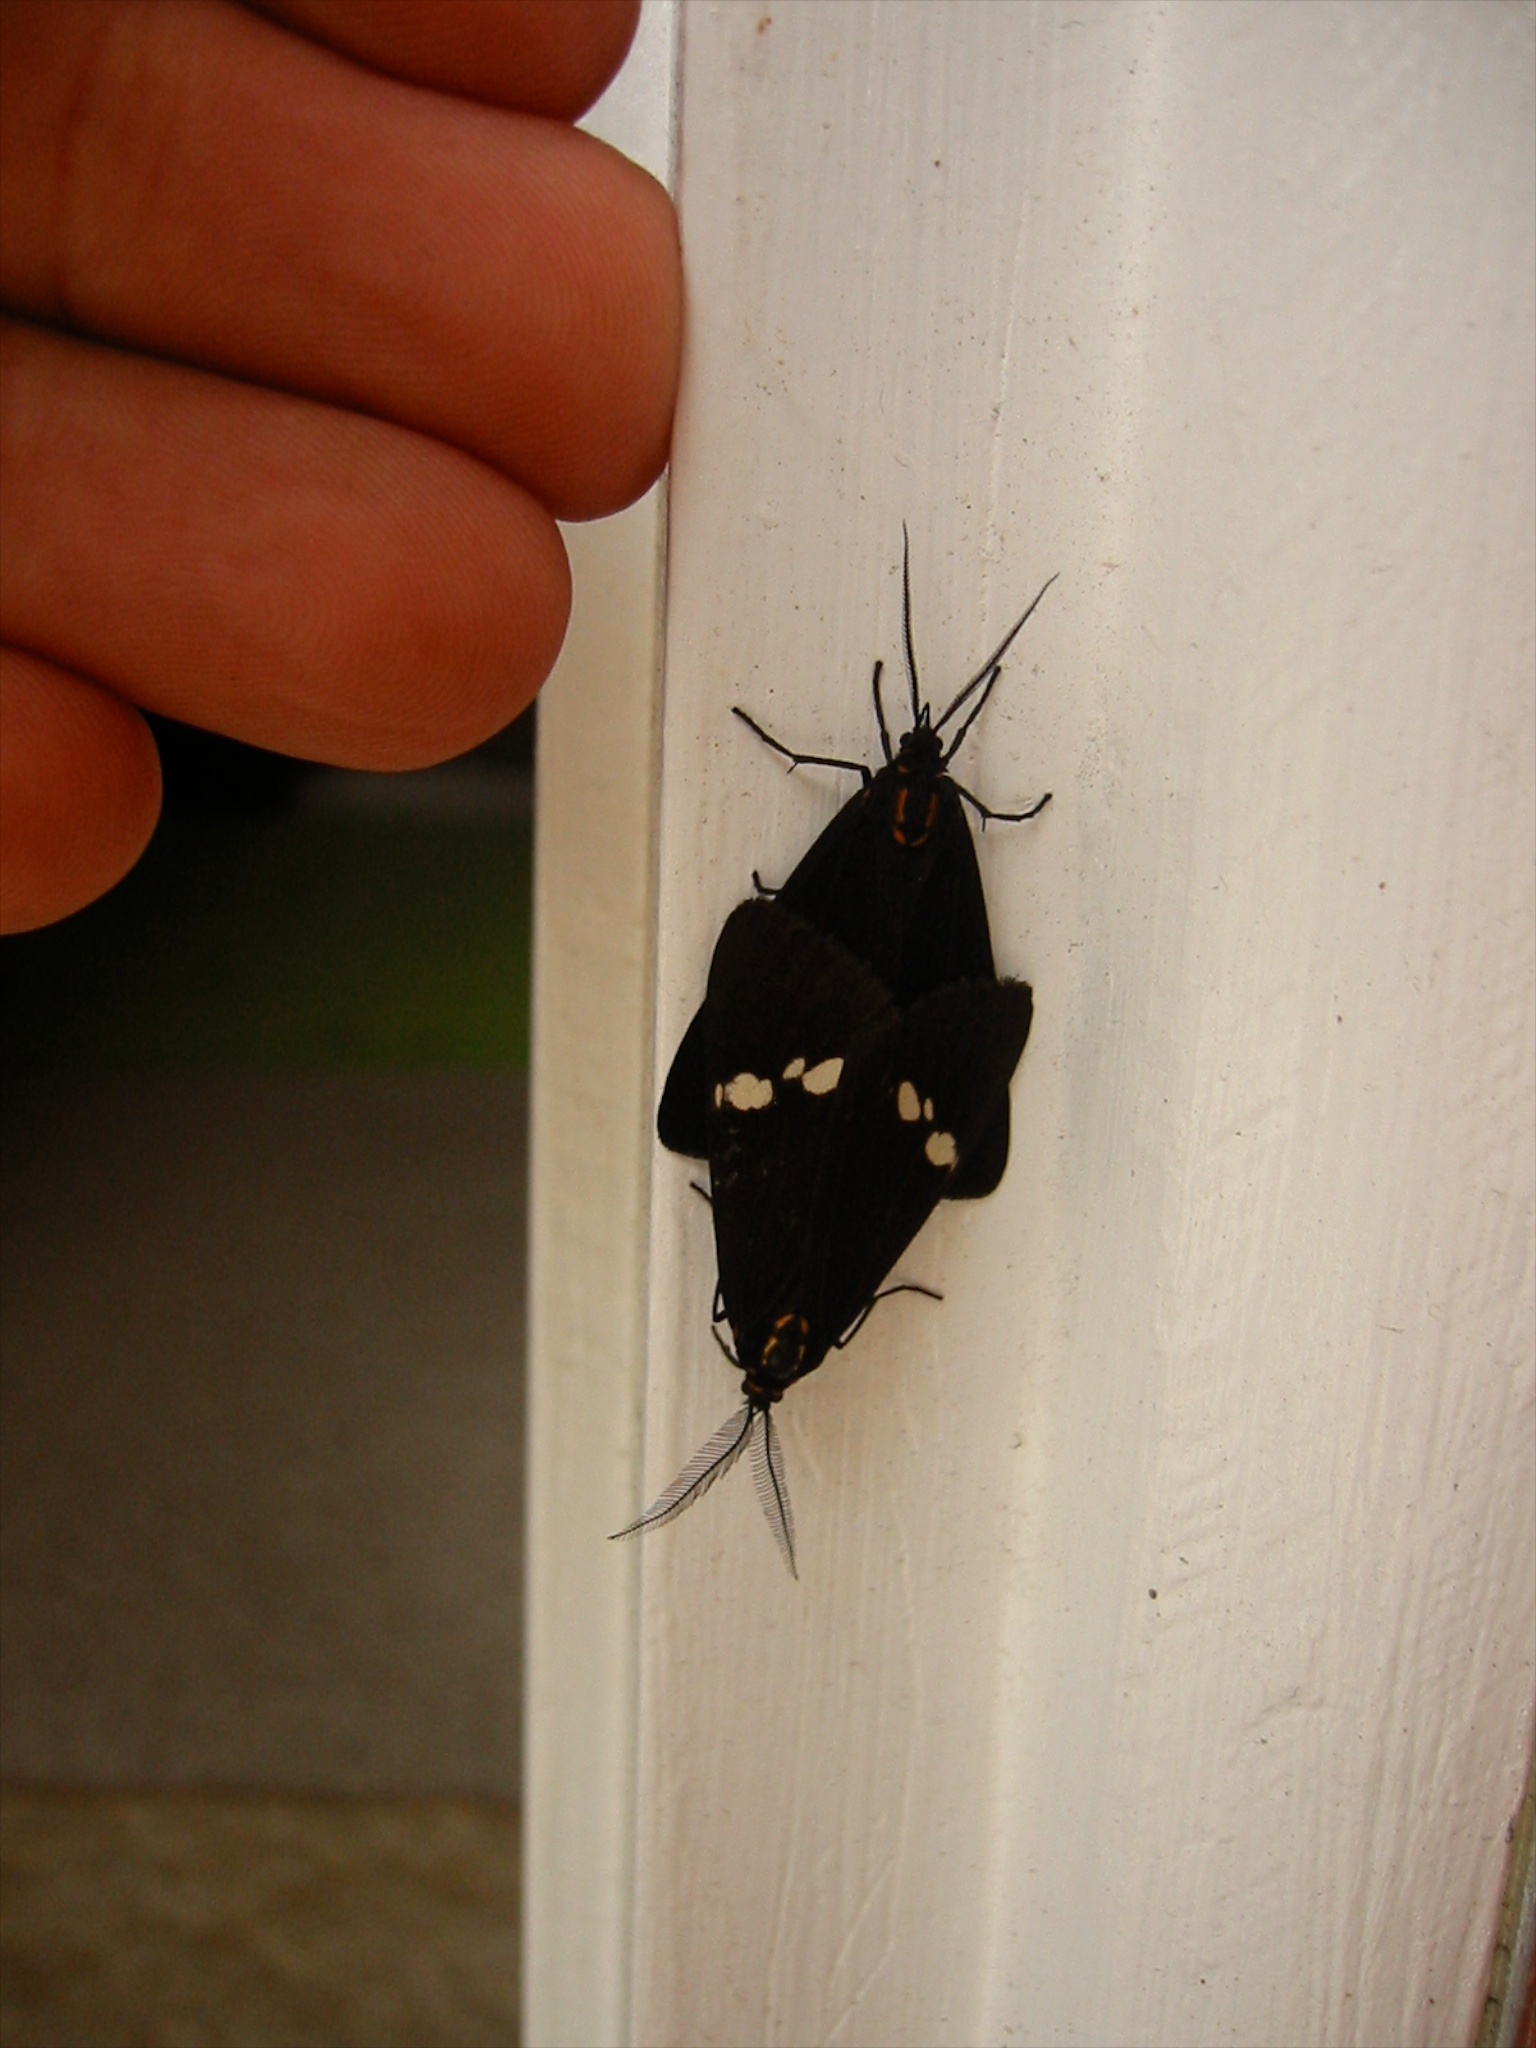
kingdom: Animalia
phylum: Arthropoda
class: Insecta
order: Lepidoptera
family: Erebidae
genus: Nyctemera
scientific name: Nyctemera annulatum
